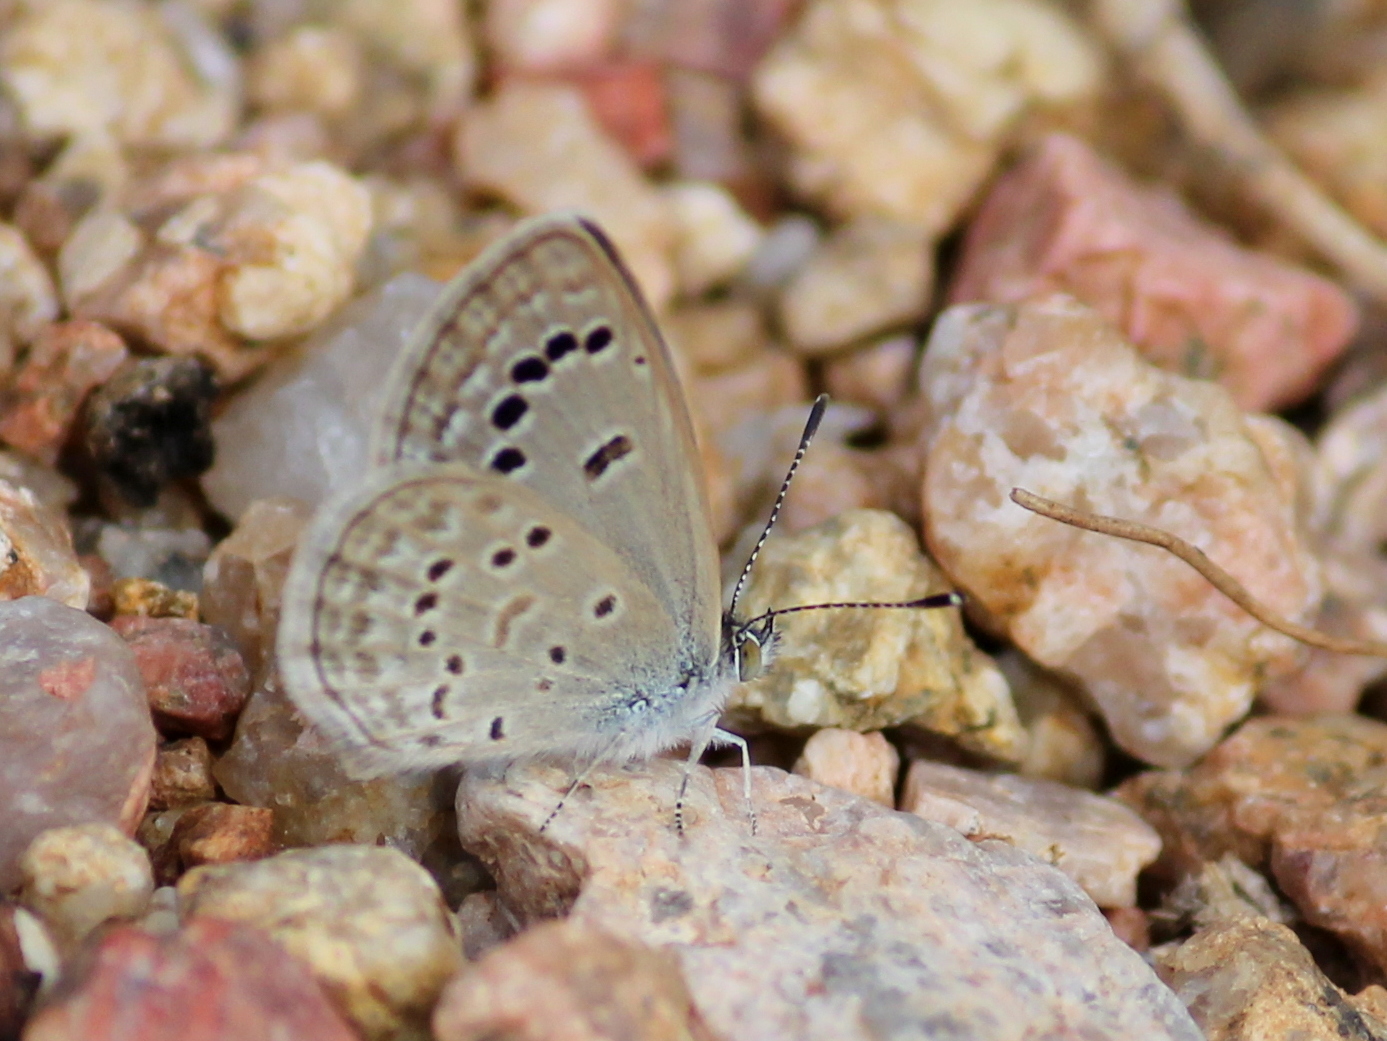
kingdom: Animalia
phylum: Arthropoda
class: Insecta
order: Lepidoptera
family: Lycaenidae
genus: Zizina
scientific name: Zizina otis
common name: Lesser grass blue
